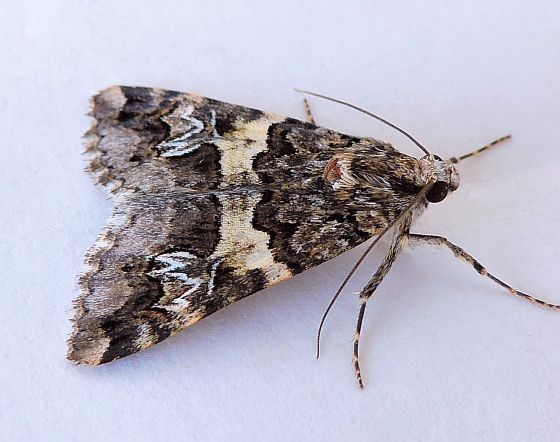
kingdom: Animalia
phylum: Arthropoda
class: Insecta
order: Lepidoptera
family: Erebidae
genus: Drasteria
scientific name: Drasteria sabulosa
